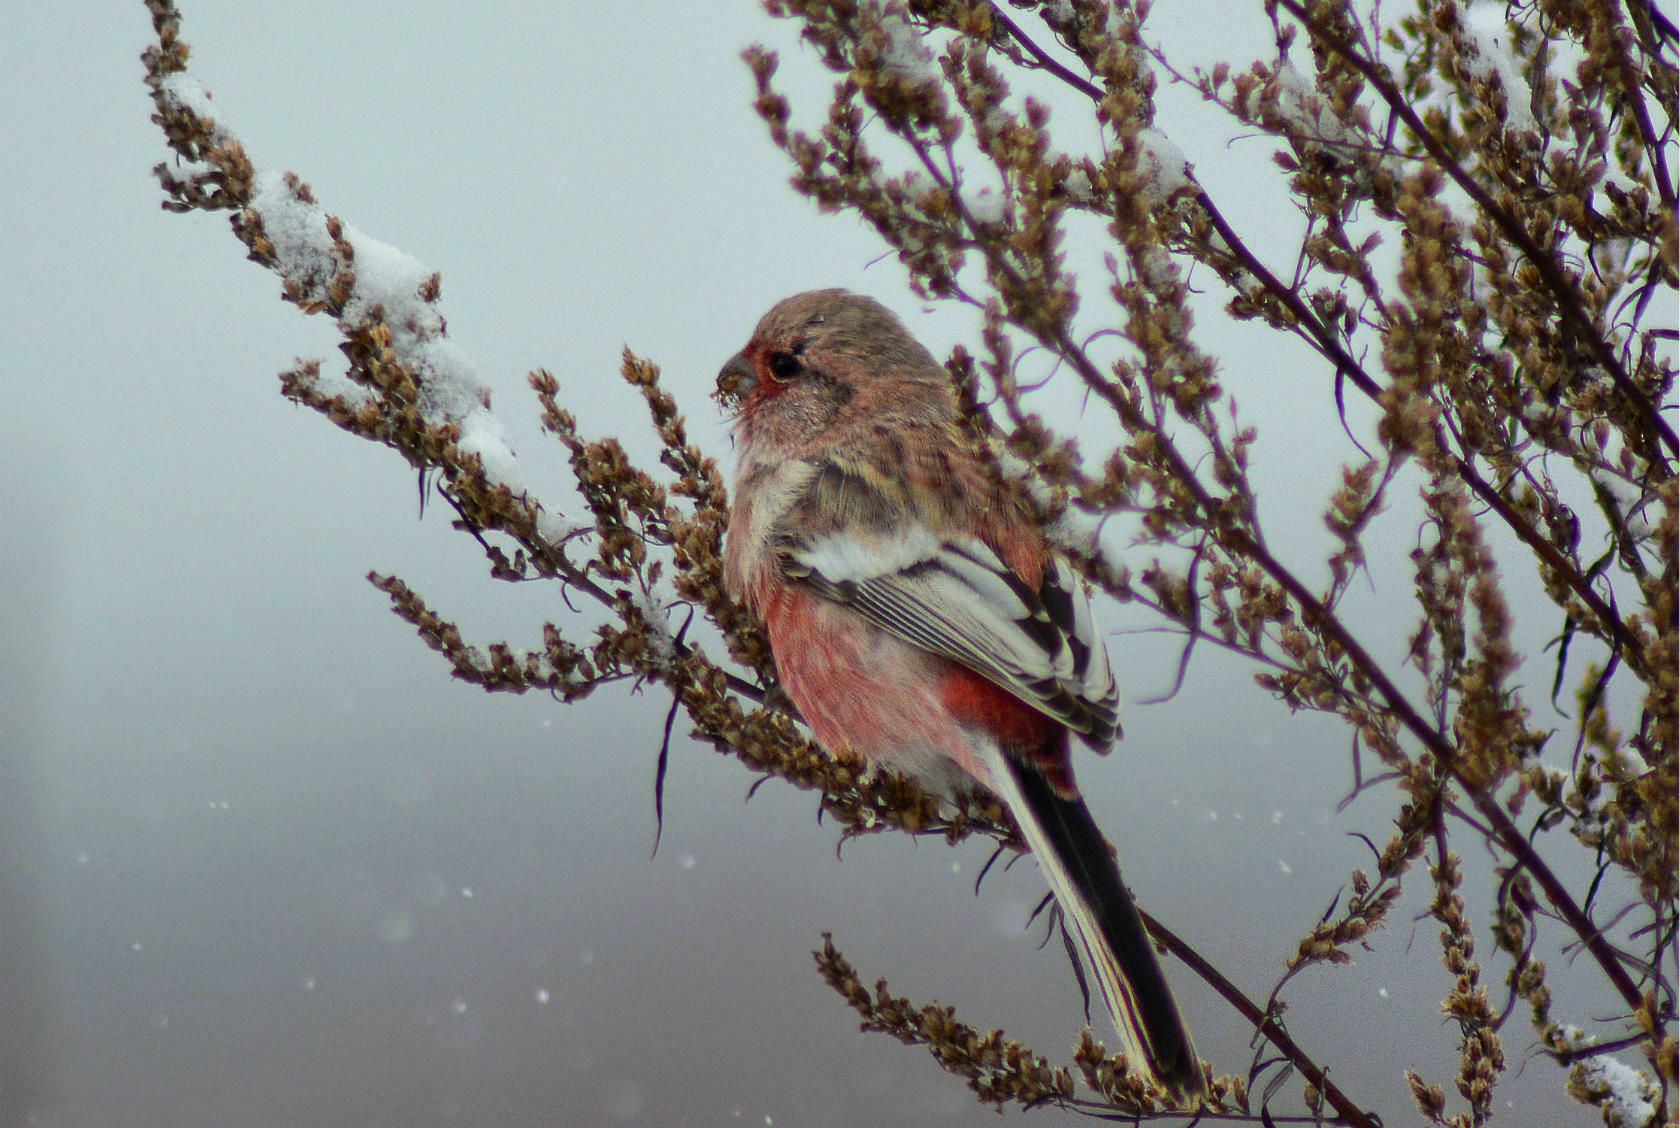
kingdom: Animalia
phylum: Chordata
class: Aves
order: Passeriformes
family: Fringillidae
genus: Carpodacus
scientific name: Carpodacus sibiricus
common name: Long-tailed rosefinch
